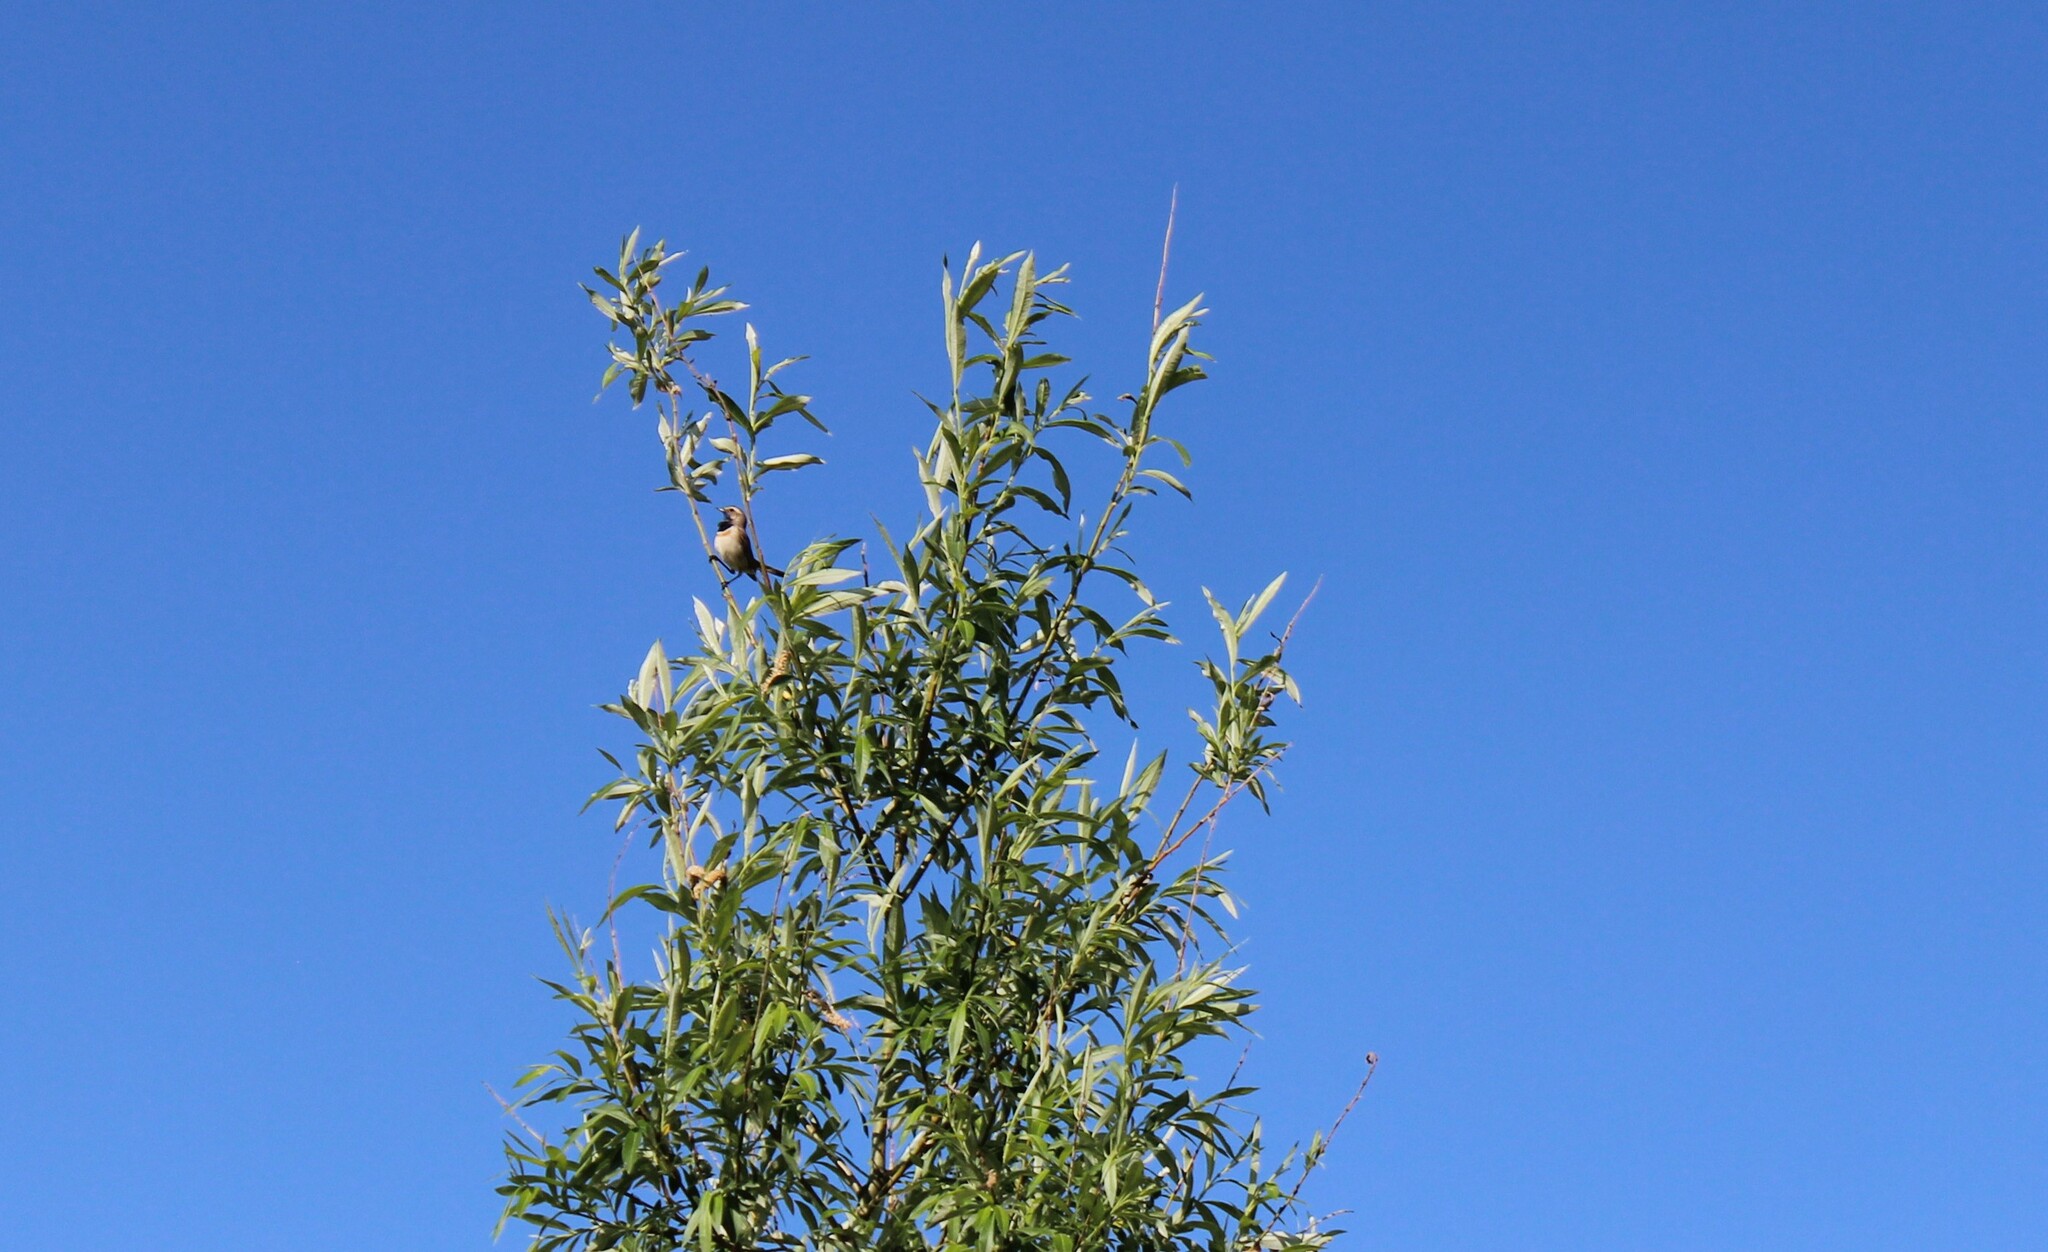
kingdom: Animalia
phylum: Chordata
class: Aves
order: Passeriformes
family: Muscicapidae
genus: Luscinia
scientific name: Luscinia svecica
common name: Bluethroat
